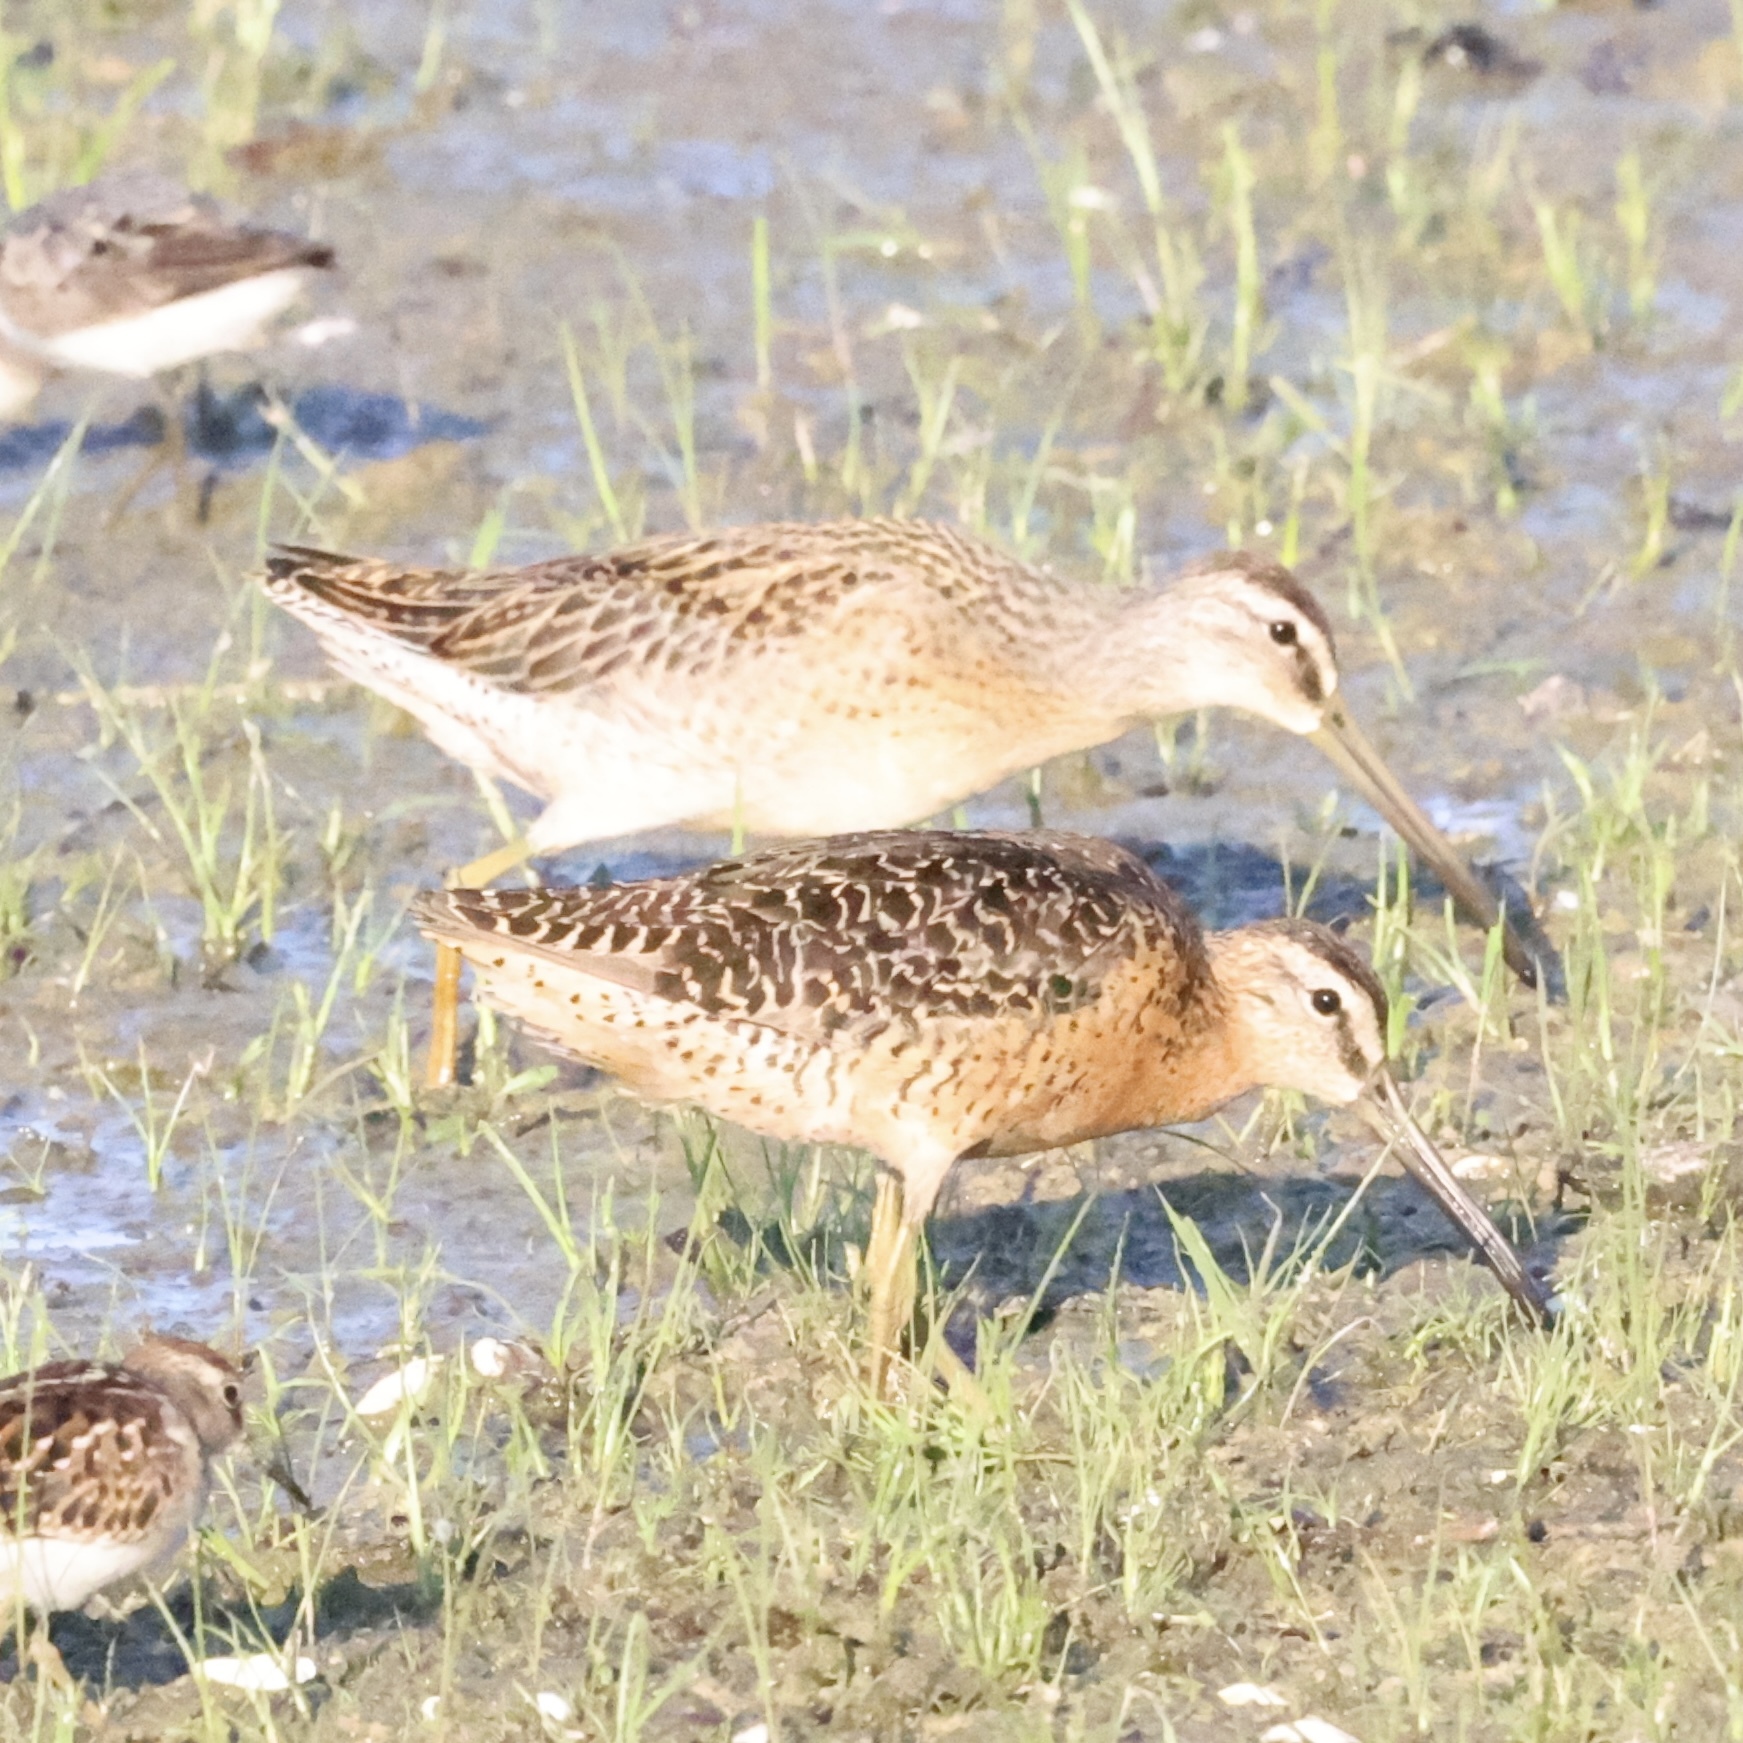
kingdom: Animalia
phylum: Chordata
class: Aves
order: Charadriiformes
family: Scolopacidae
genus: Limnodromus
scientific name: Limnodromus griseus
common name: Short-billed dowitcher
